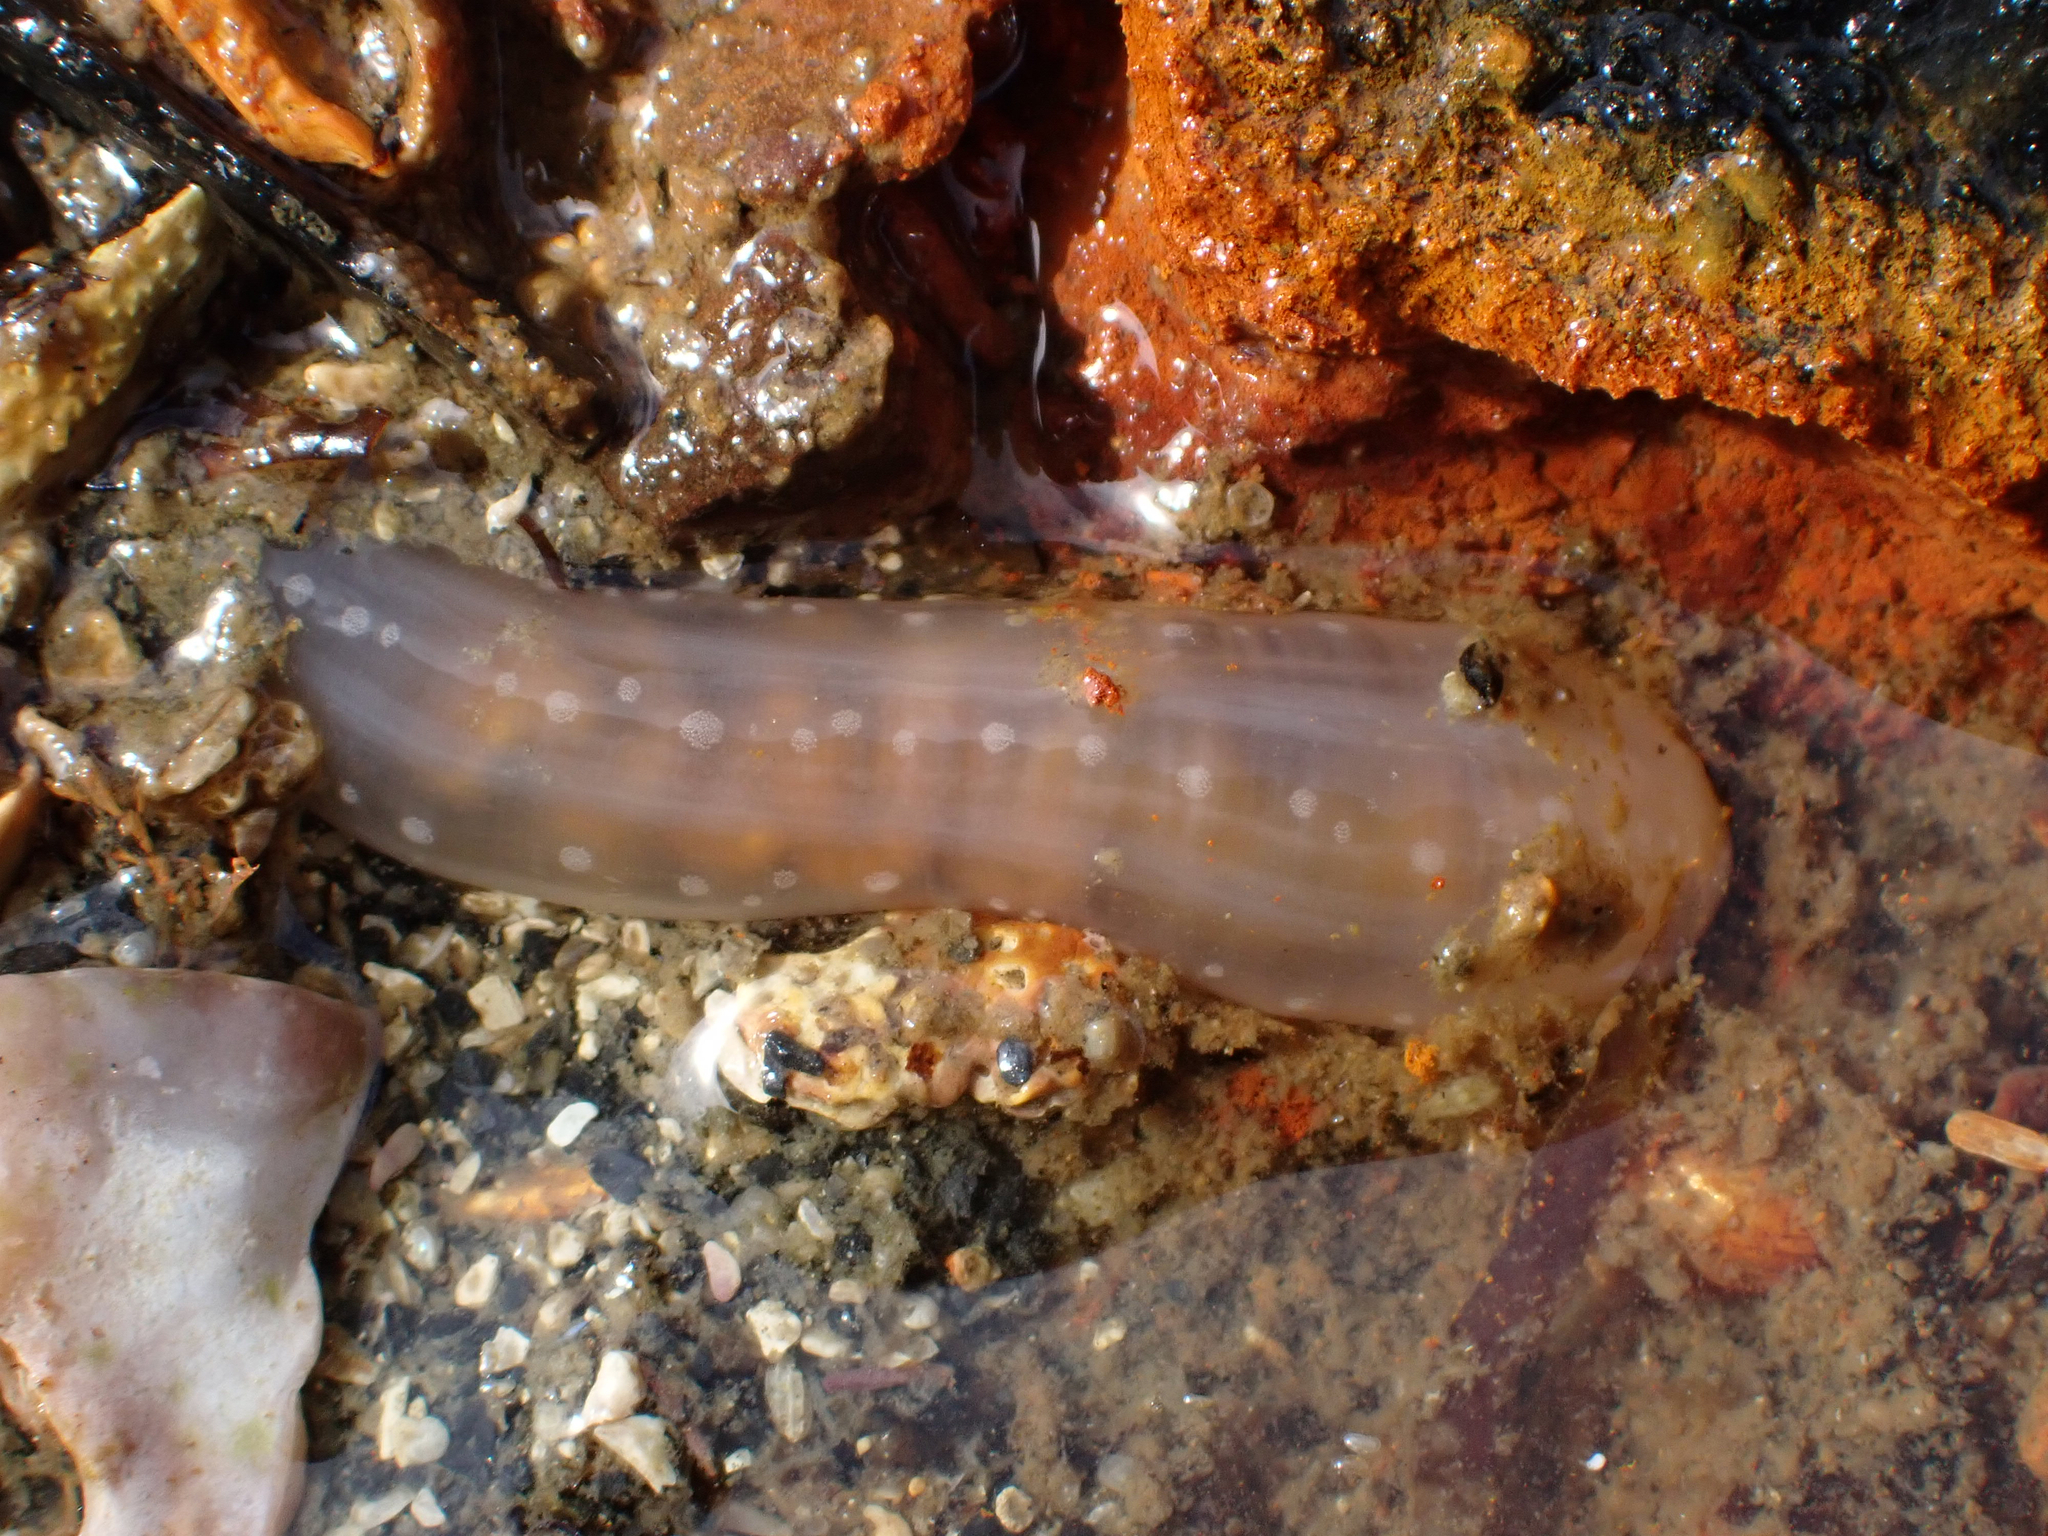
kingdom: Animalia
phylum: Echinodermata
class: Holothuroidea
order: Apodida
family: Chiridotidae
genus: Chiridota
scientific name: Chiridota discolor
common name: Jellybean footless sea cucumber
